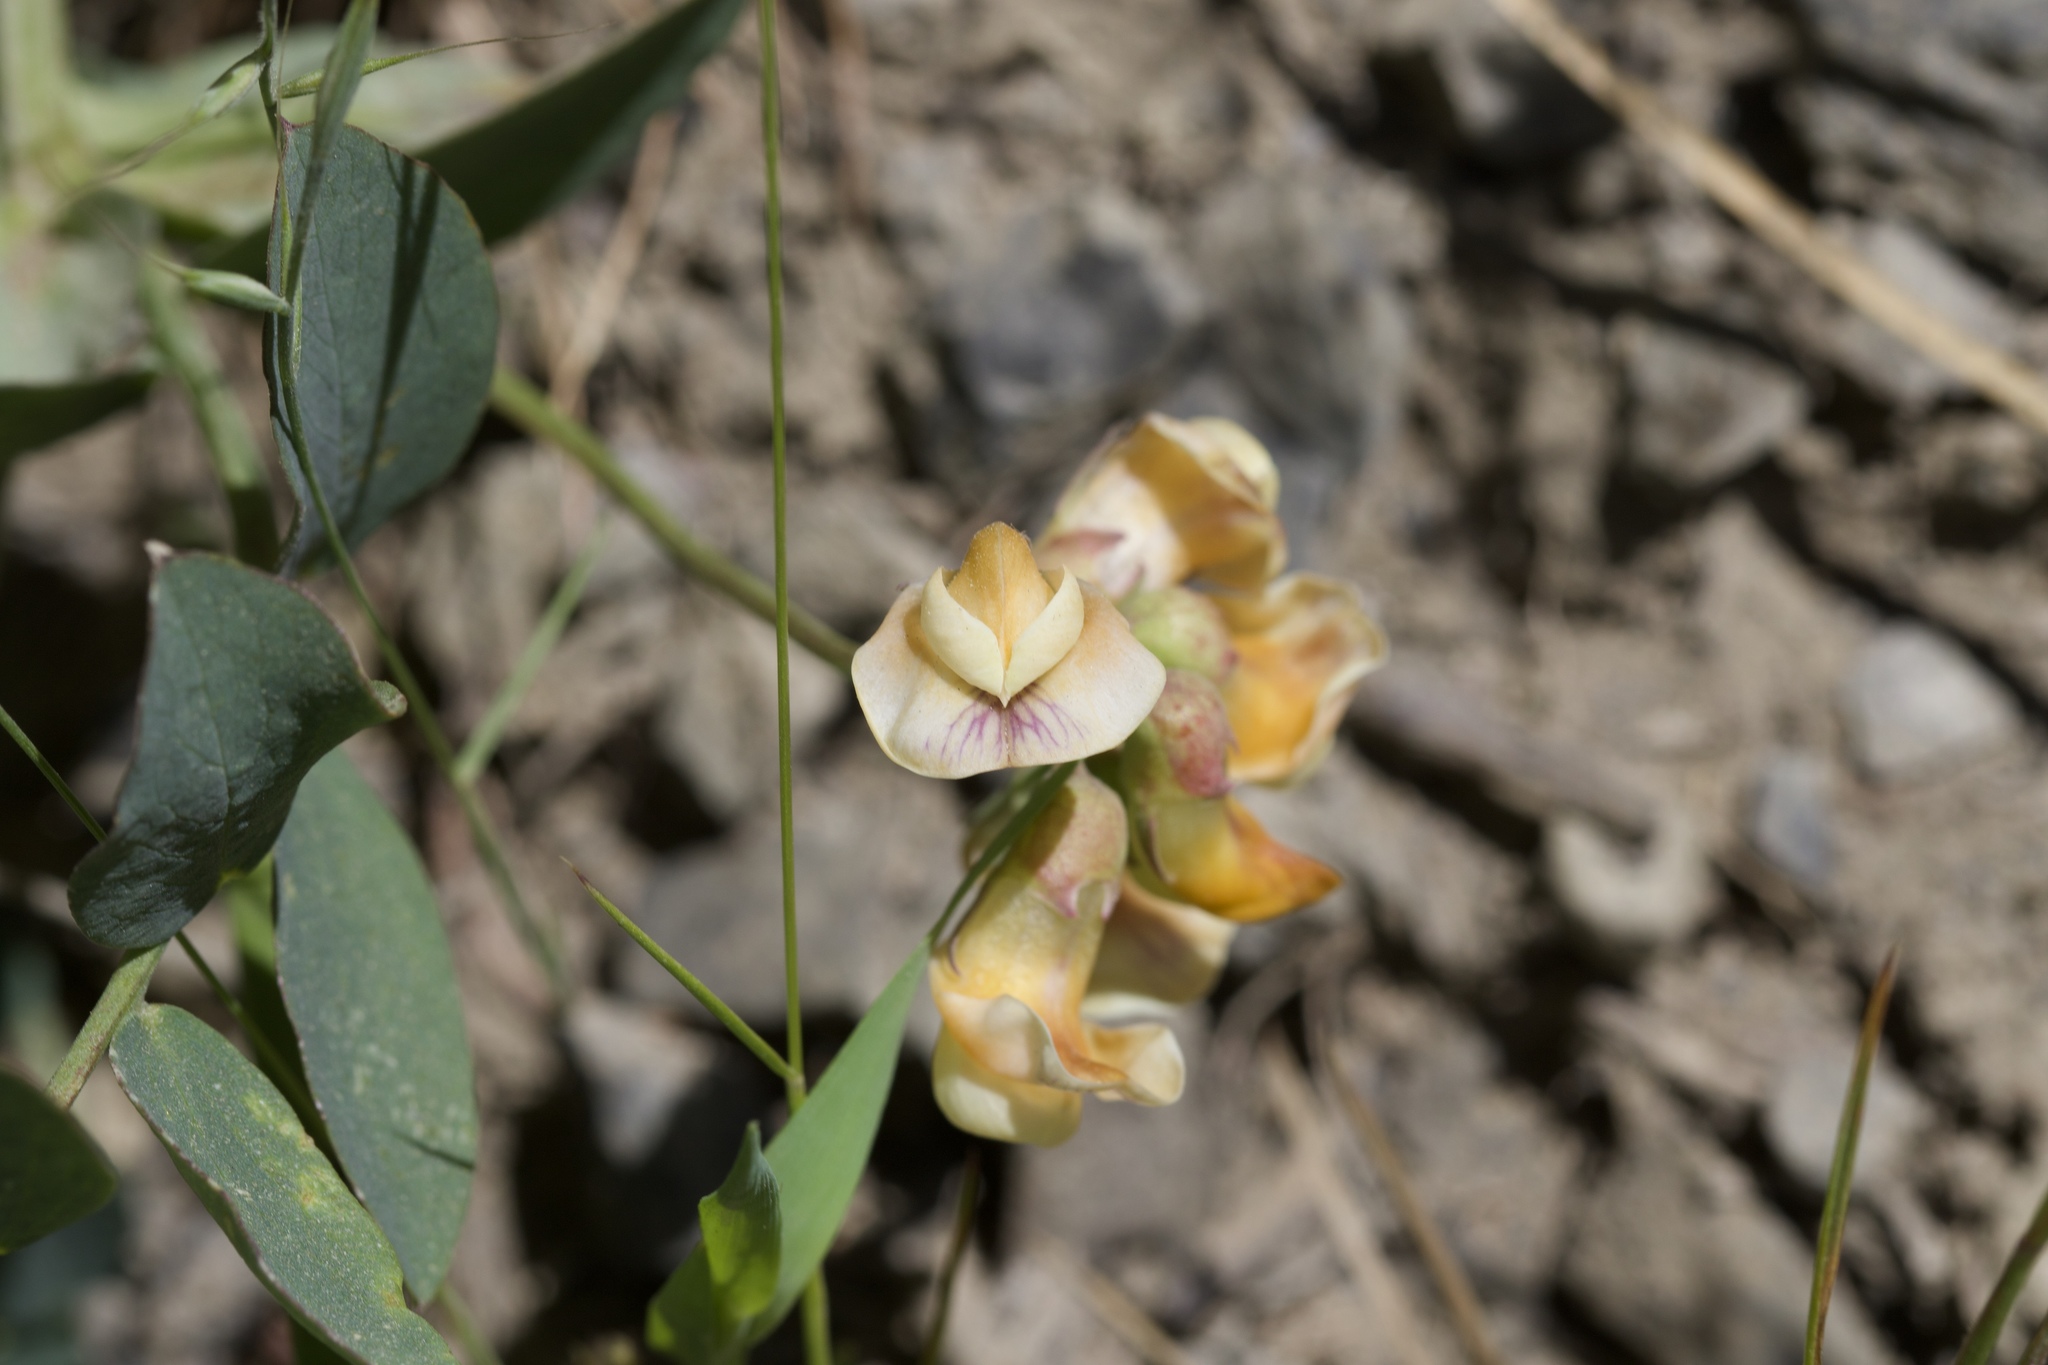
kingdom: Plantae
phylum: Tracheophyta
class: Magnoliopsida
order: Fabales
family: Fabaceae
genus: Lathyrus
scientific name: Lathyrus sulphureus
